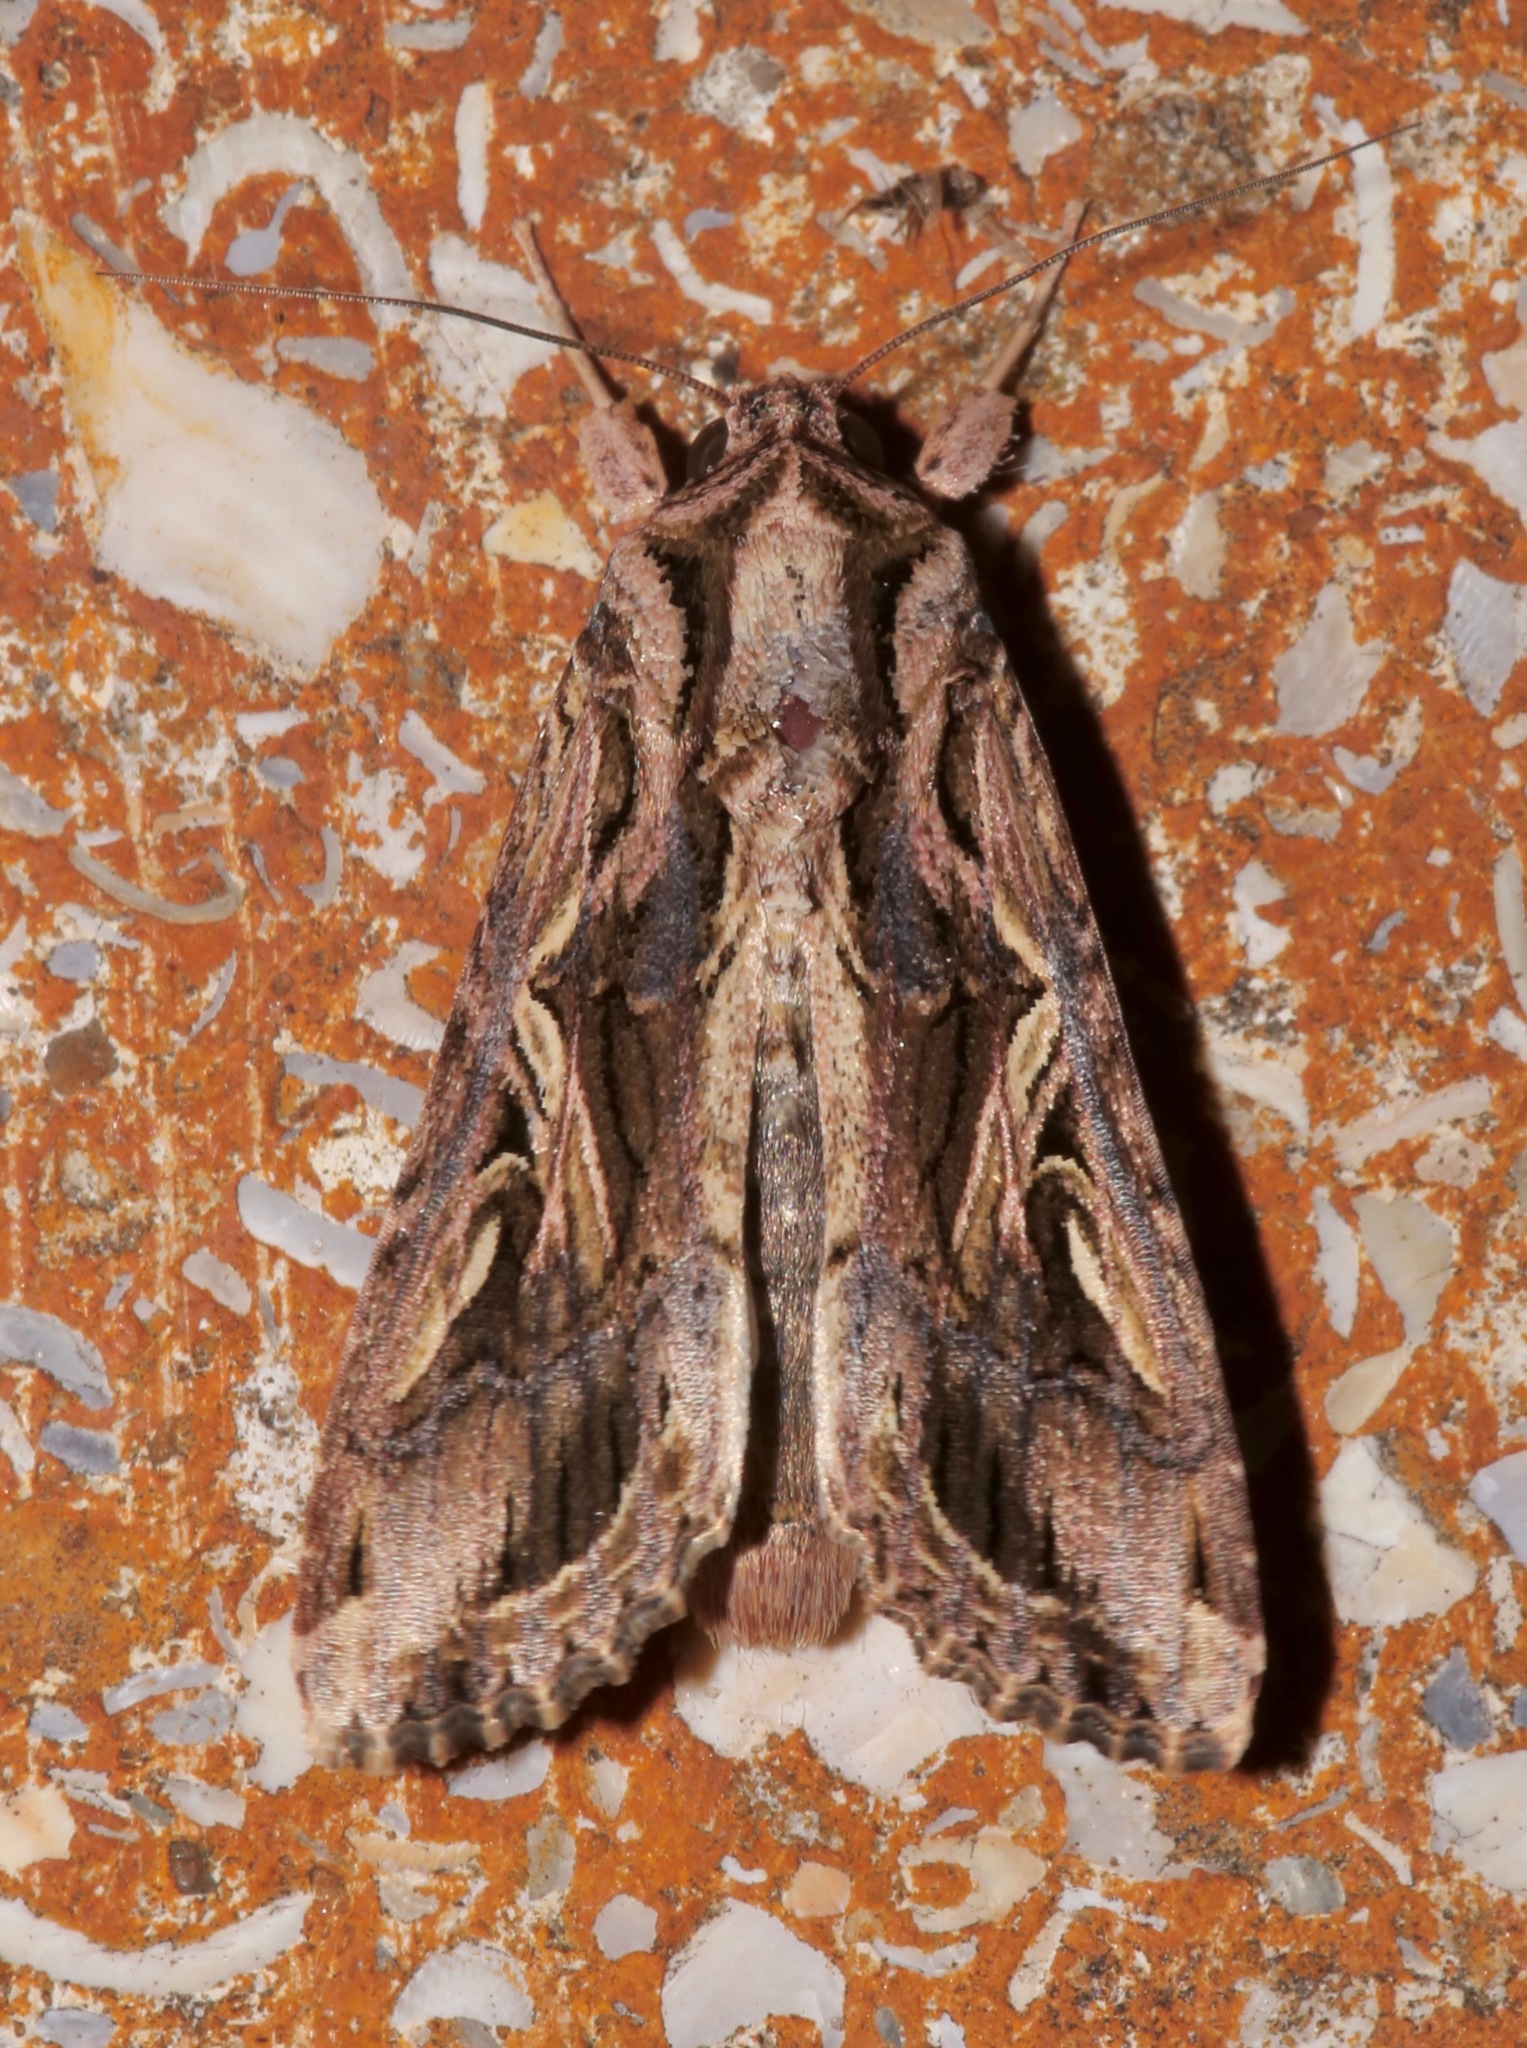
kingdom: Animalia
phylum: Arthropoda
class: Insecta
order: Lepidoptera
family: Noctuidae
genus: Spodoptera
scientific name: Spodoptera dolichos
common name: Sweetpotato armyworm
